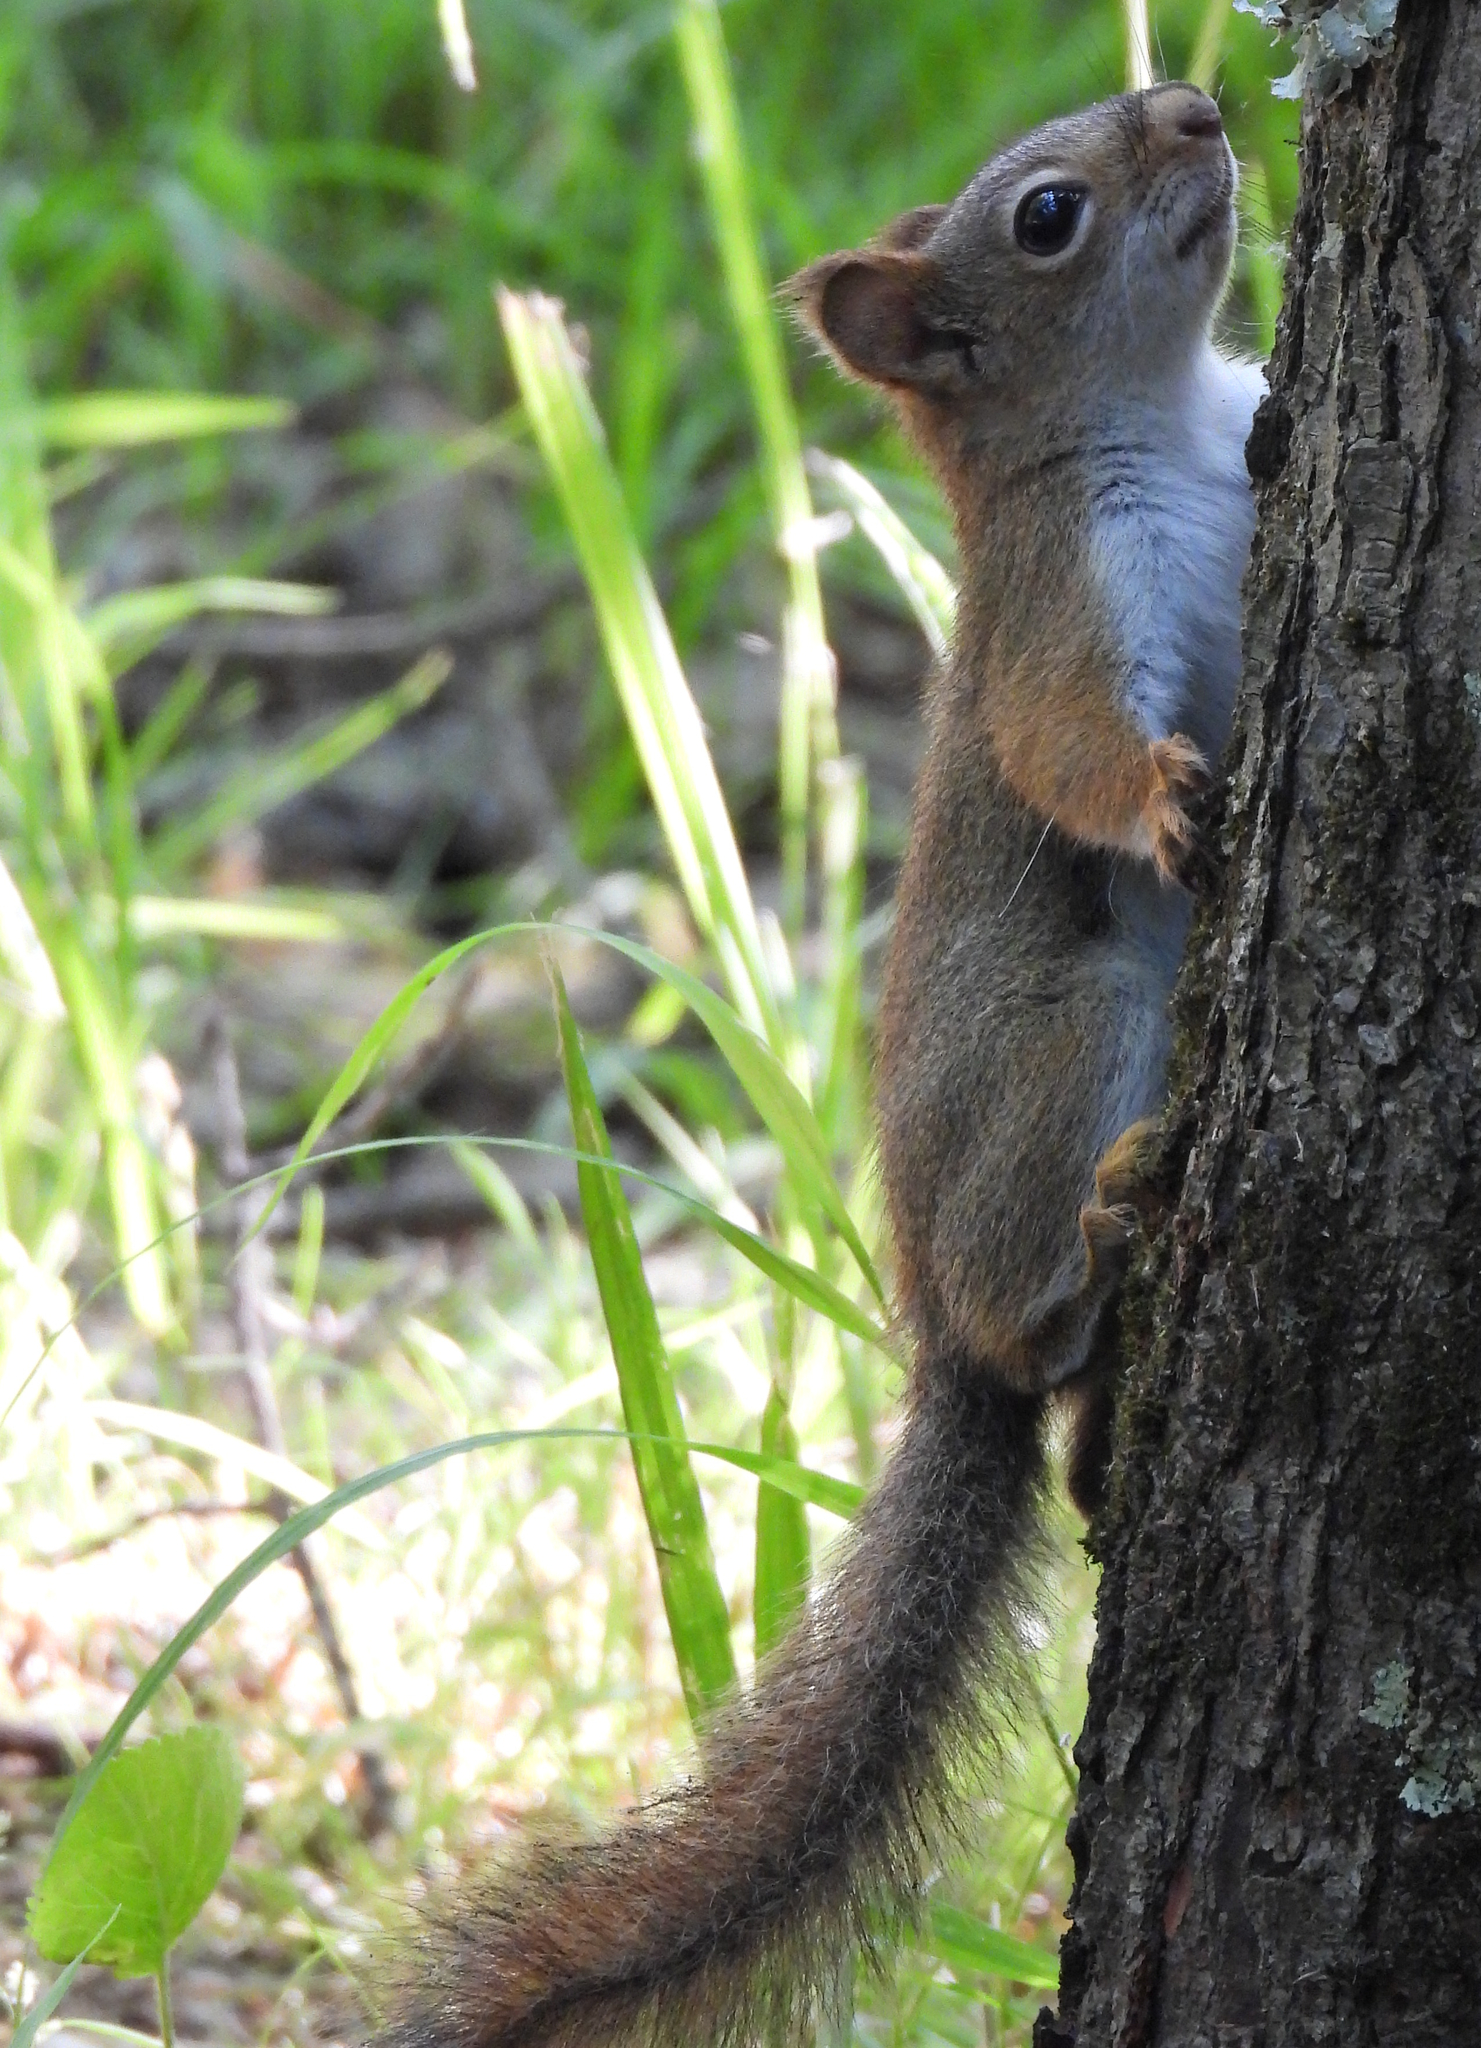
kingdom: Animalia
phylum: Chordata
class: Mammalia
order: Rodentia
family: Sciuridae
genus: Tamiasciurus
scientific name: Tamiasciurus hudsonicus
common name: Red squirrel
